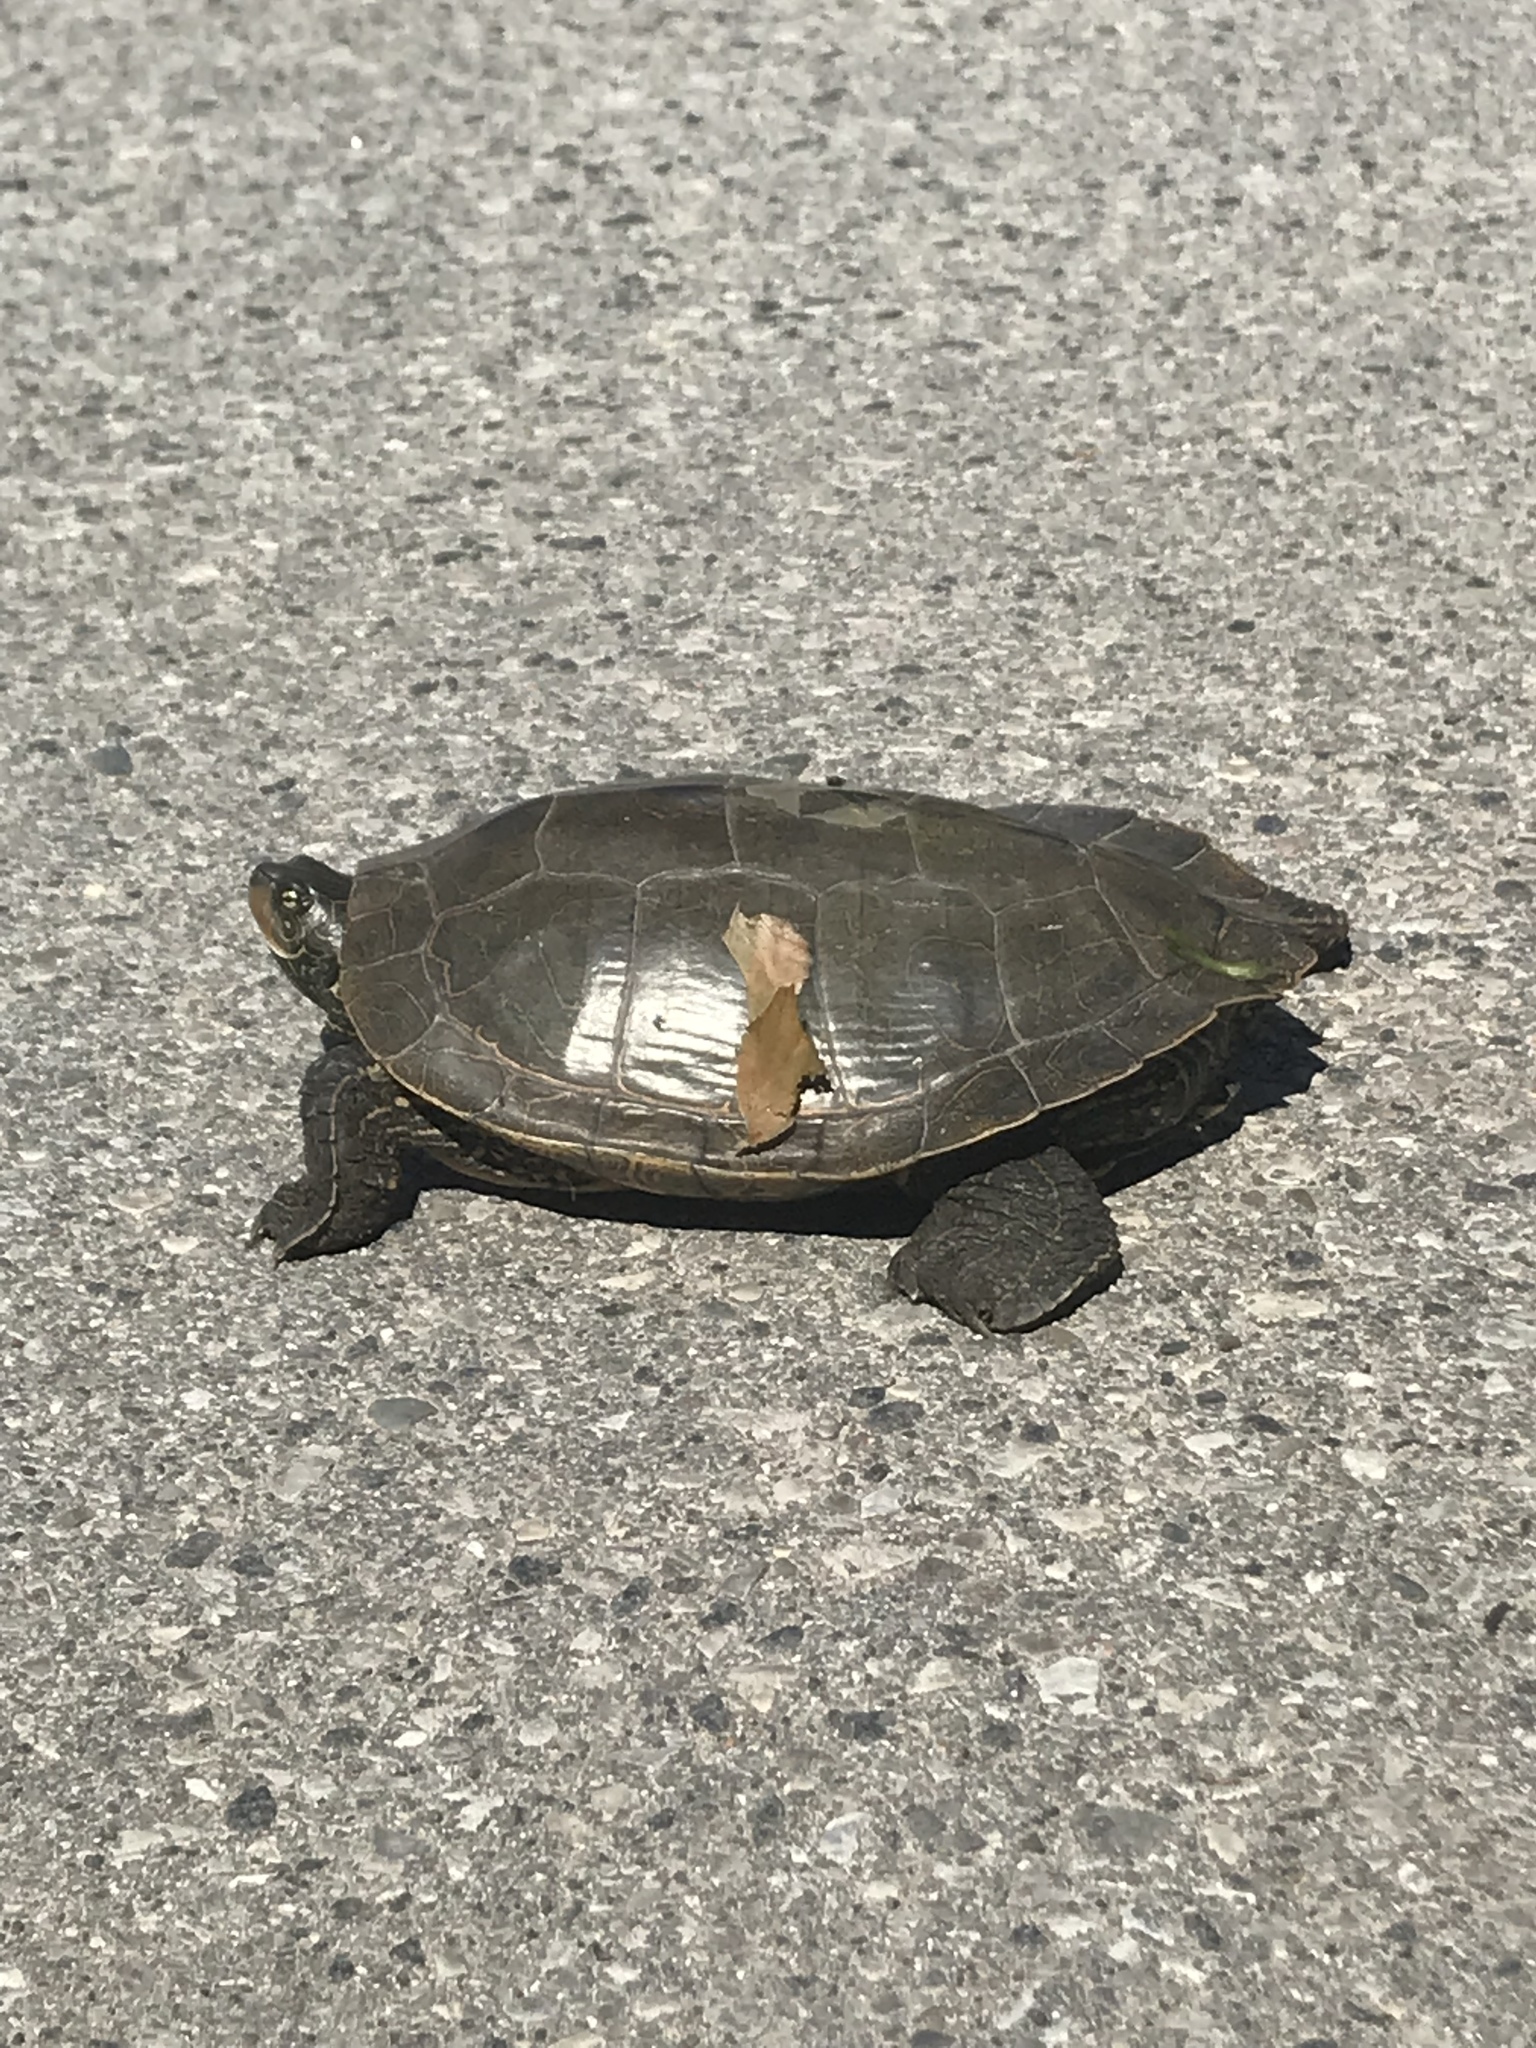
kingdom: Animalia
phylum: Chordata
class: Testudines
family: Emydidae
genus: Graptemys
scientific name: Graptemys geographica
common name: Common map turtle
